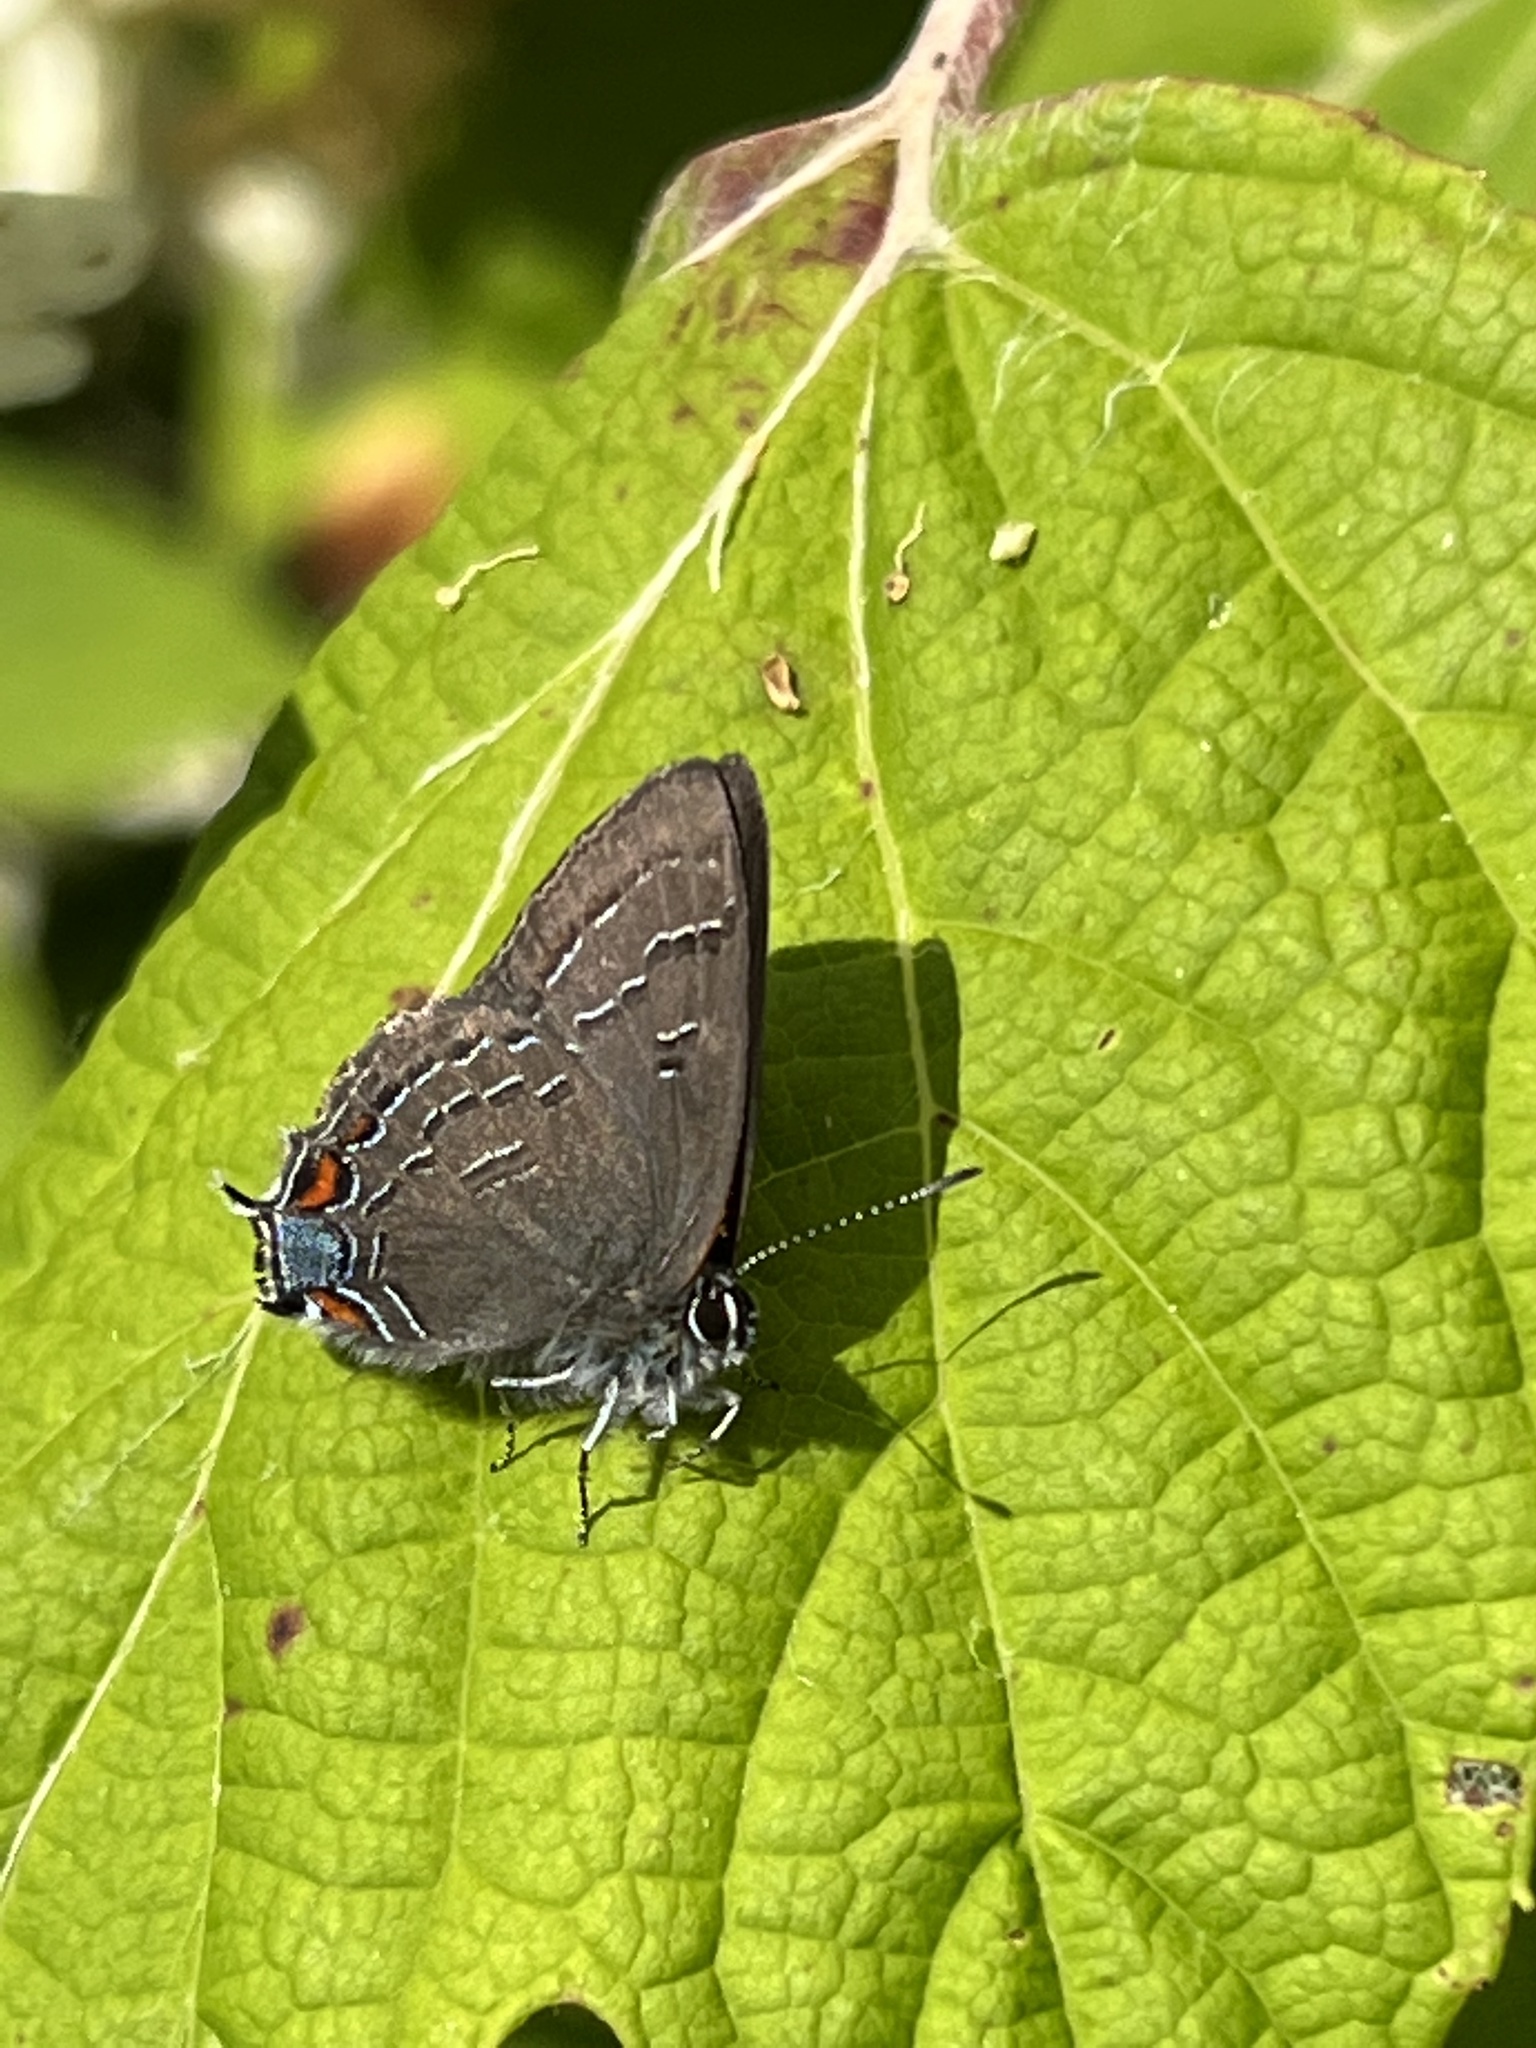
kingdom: Animalia
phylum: Arthropoda
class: Insecta
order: Lepidoptera
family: Lycaenidae
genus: Satyrium
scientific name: Satyrium calanus
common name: Banded hairstreak
